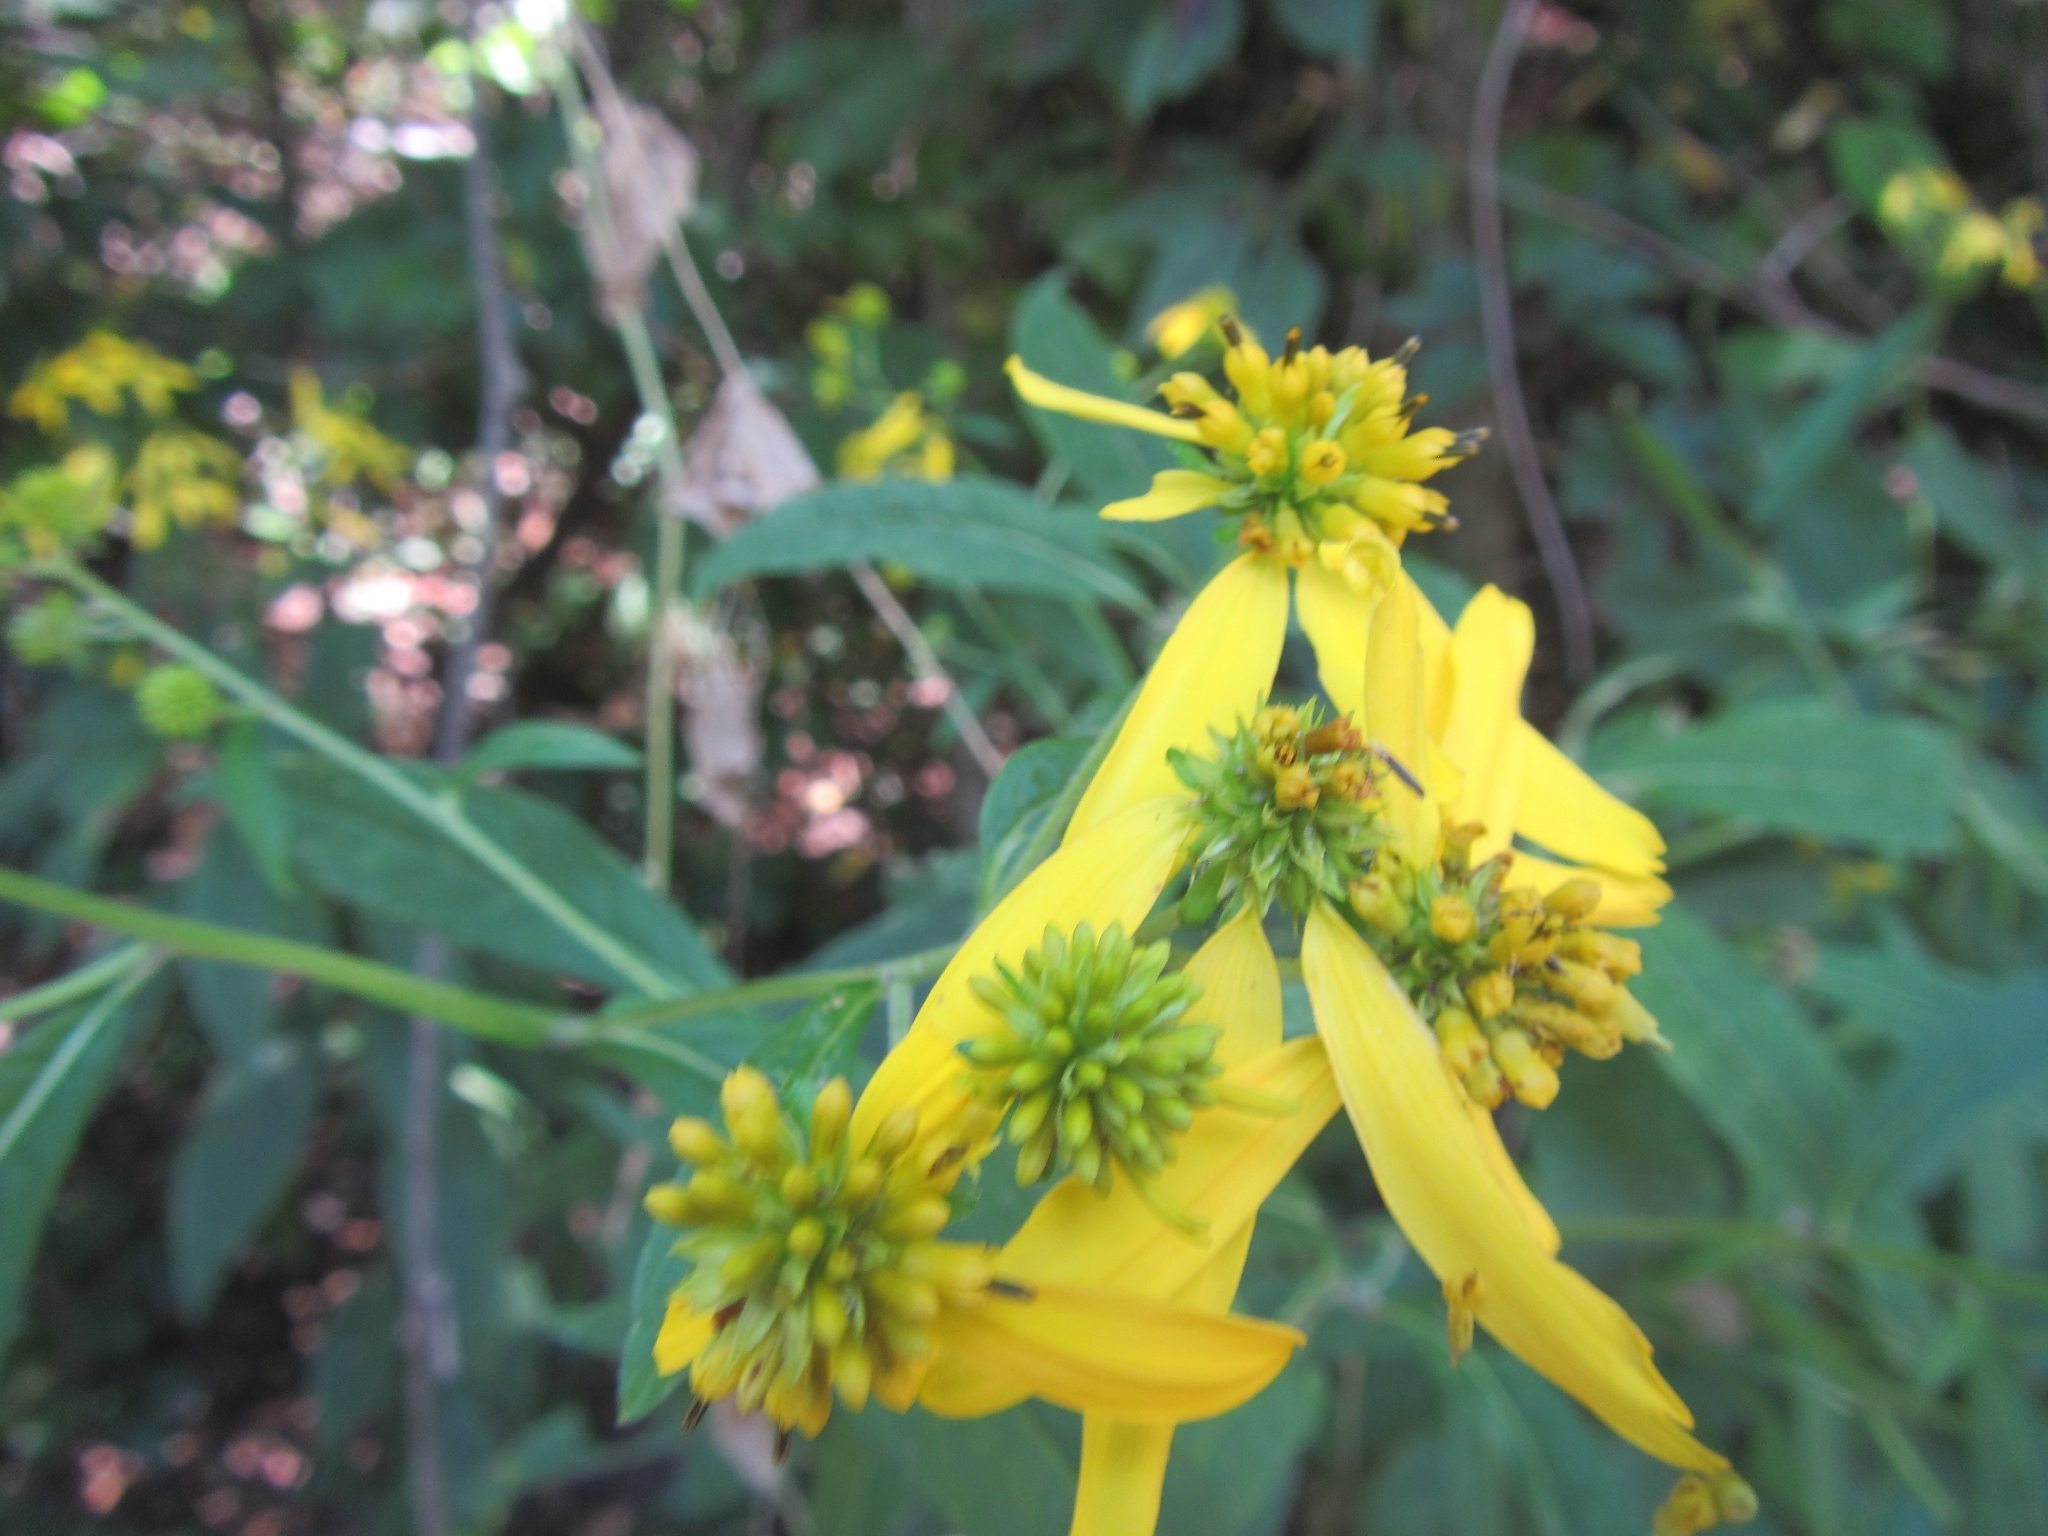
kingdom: Plantae
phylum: Tracheophyta
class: Magnoliopsida
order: Asterales
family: Asteraceae
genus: Verbesina
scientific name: Verbesina alternifolia
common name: Wingstem
